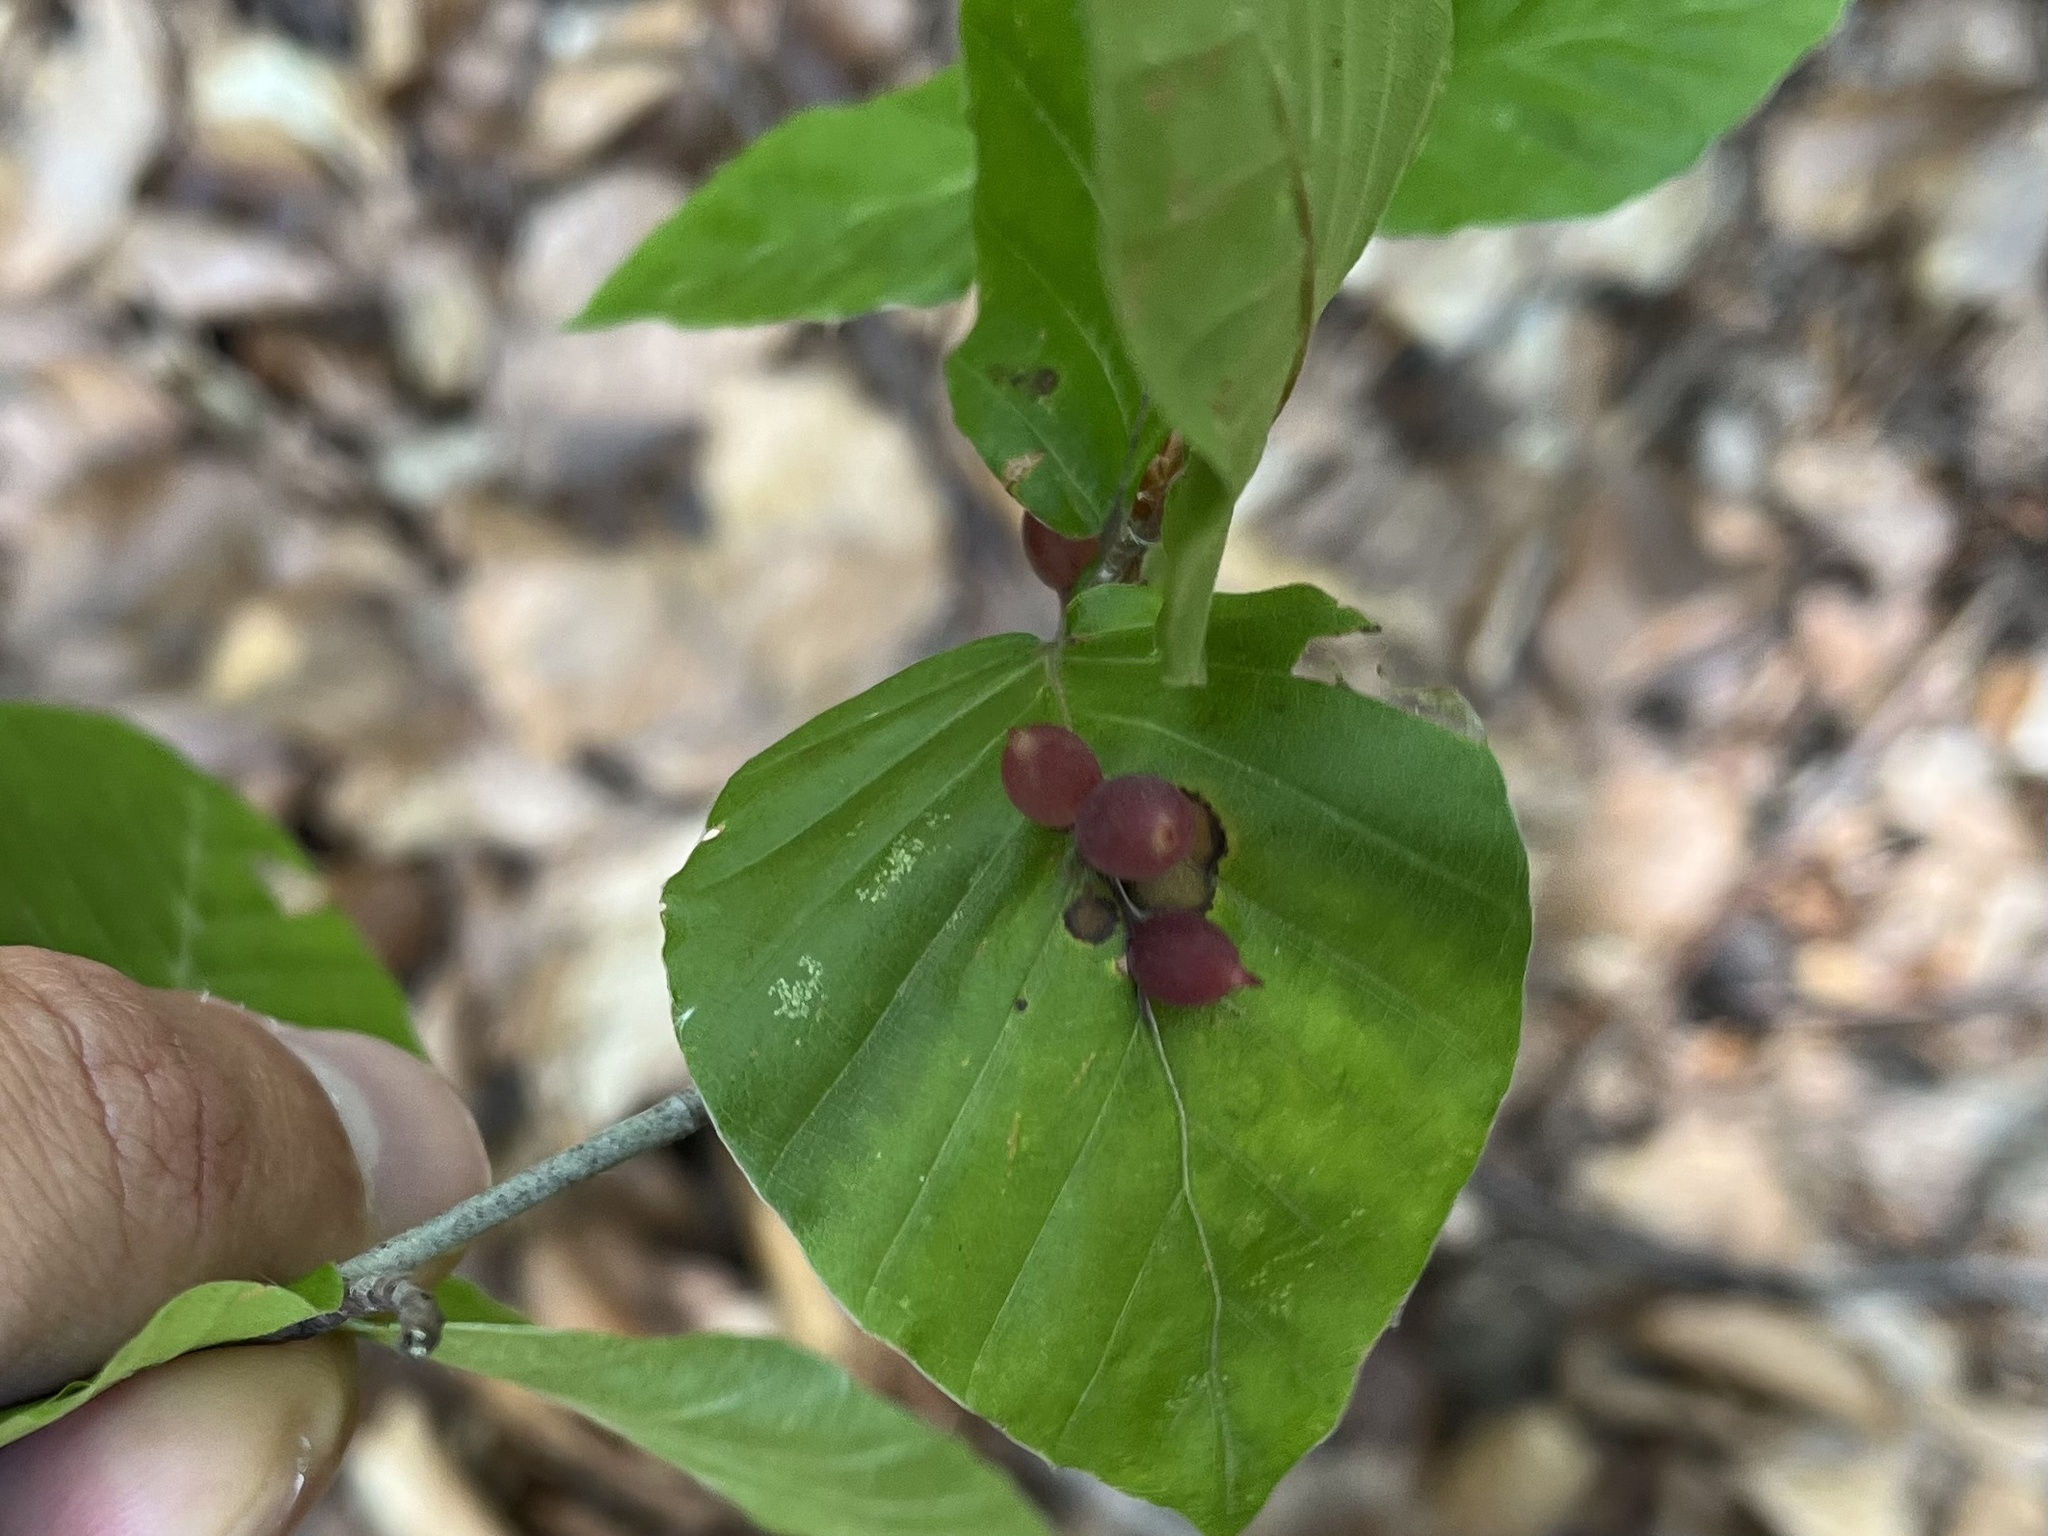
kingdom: Animalia
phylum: Arthropoda
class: Insecta
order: Diptera
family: Cecidomyiidae
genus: Mikiola
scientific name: Mikiola fagi
